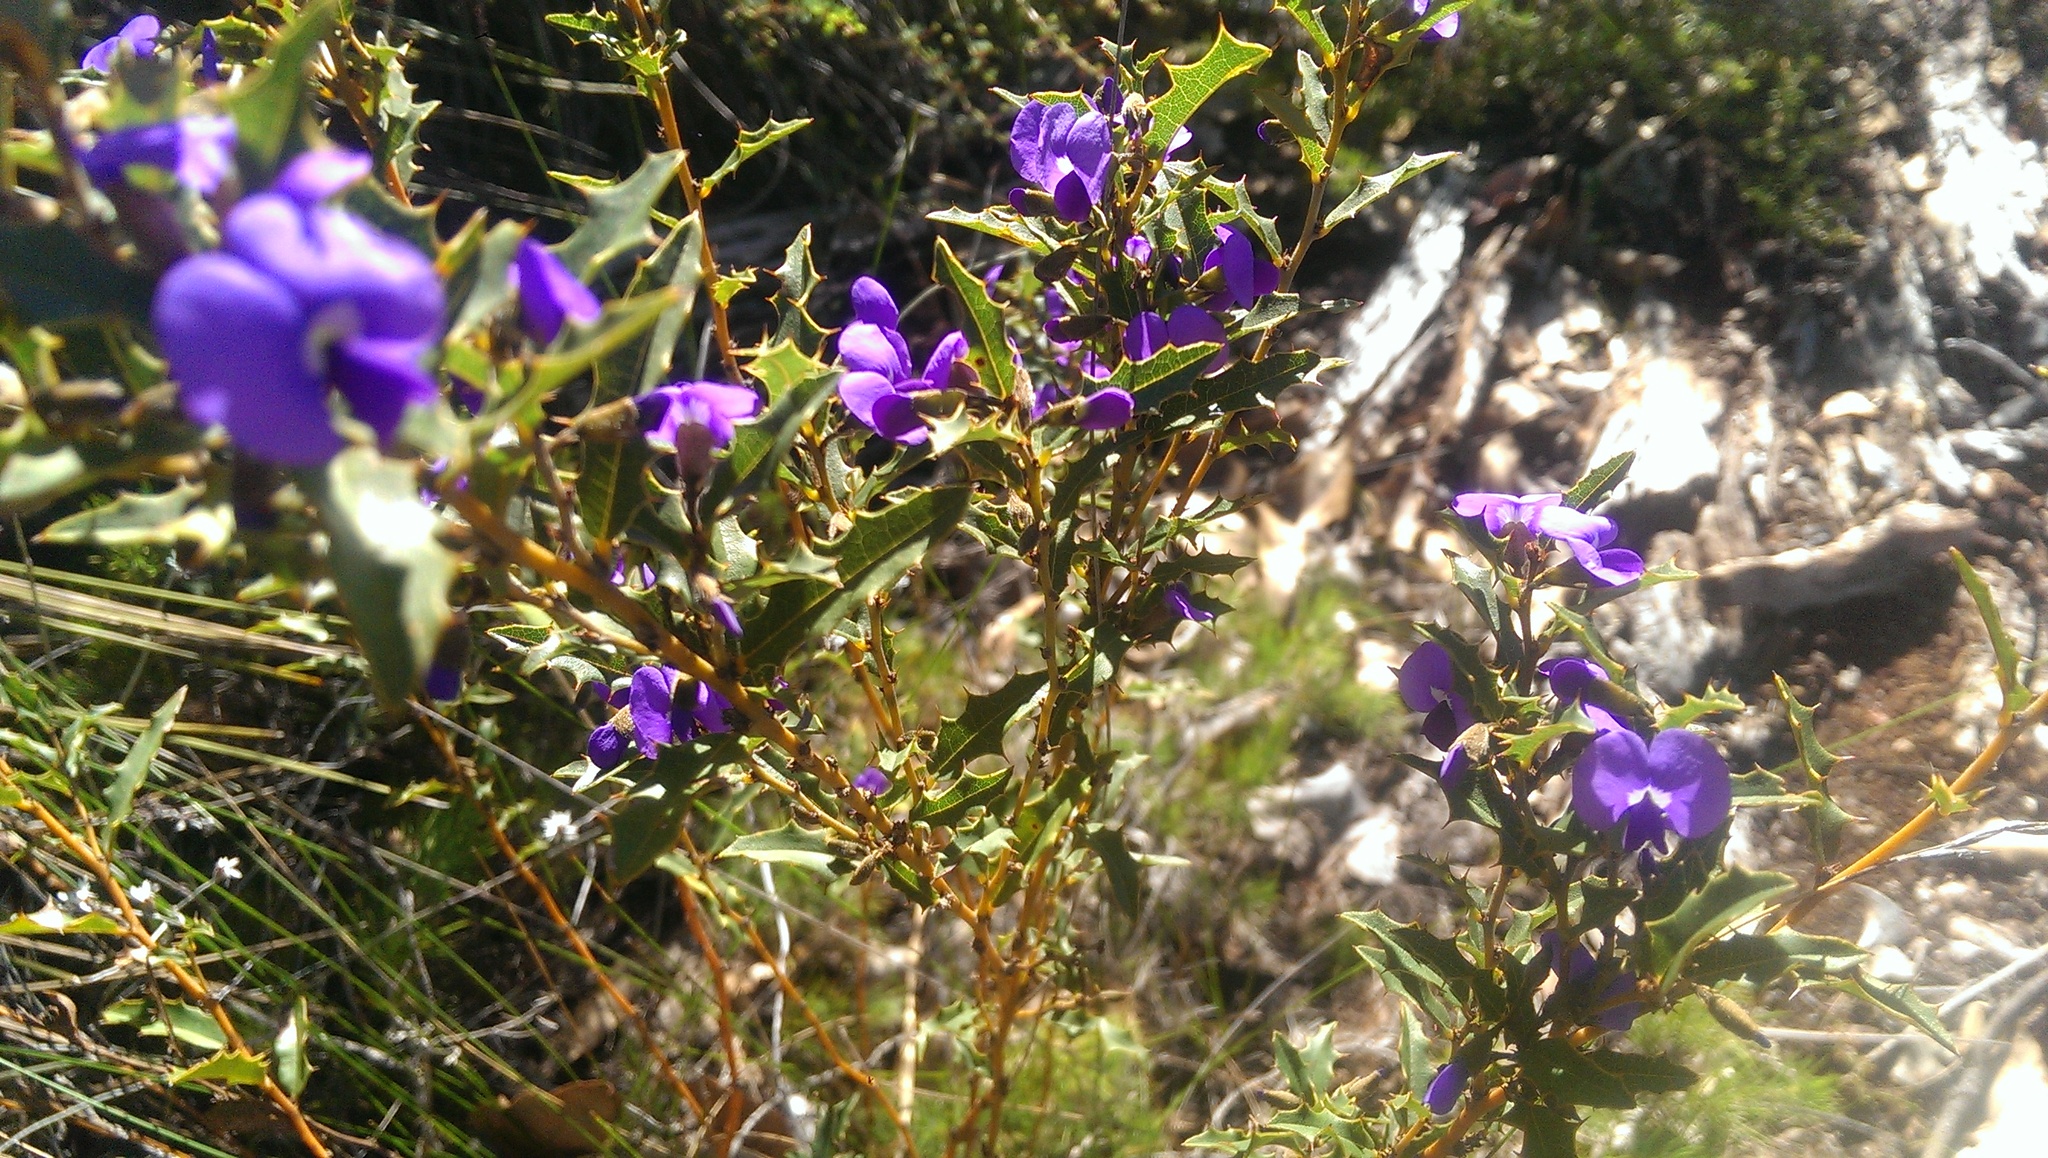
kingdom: Plantae
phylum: Tracheophyta
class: Magnoliopsida
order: Fabales
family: Fabaceae
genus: Hovea
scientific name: Hovea chorizemifolia
